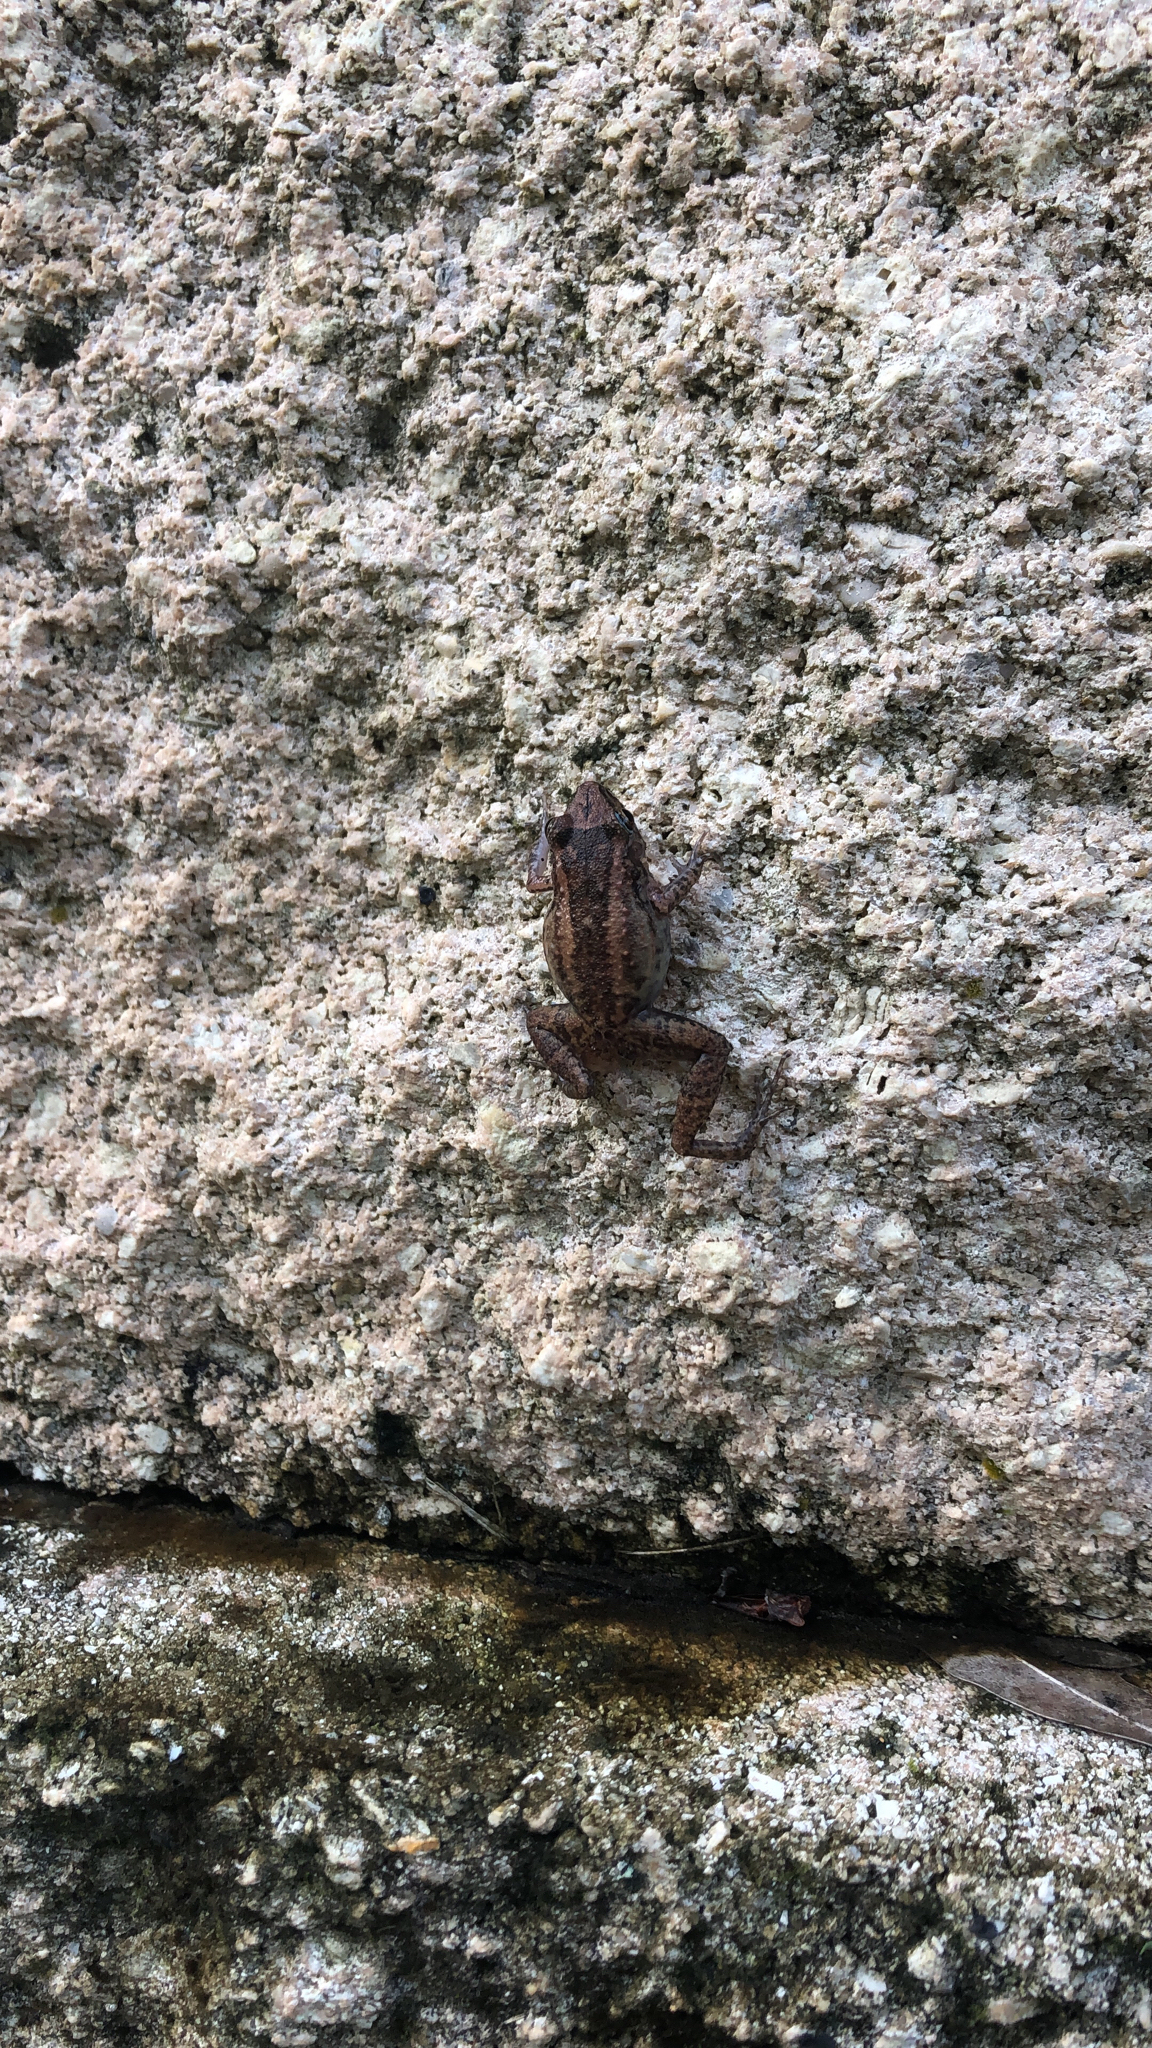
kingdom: Animalia
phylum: Chordata
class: Amphibia
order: Anura
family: Eleutherodactylidae
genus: Eleutherodactylus
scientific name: Eleutherodactylus planirostris
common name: Greenhouse frog
